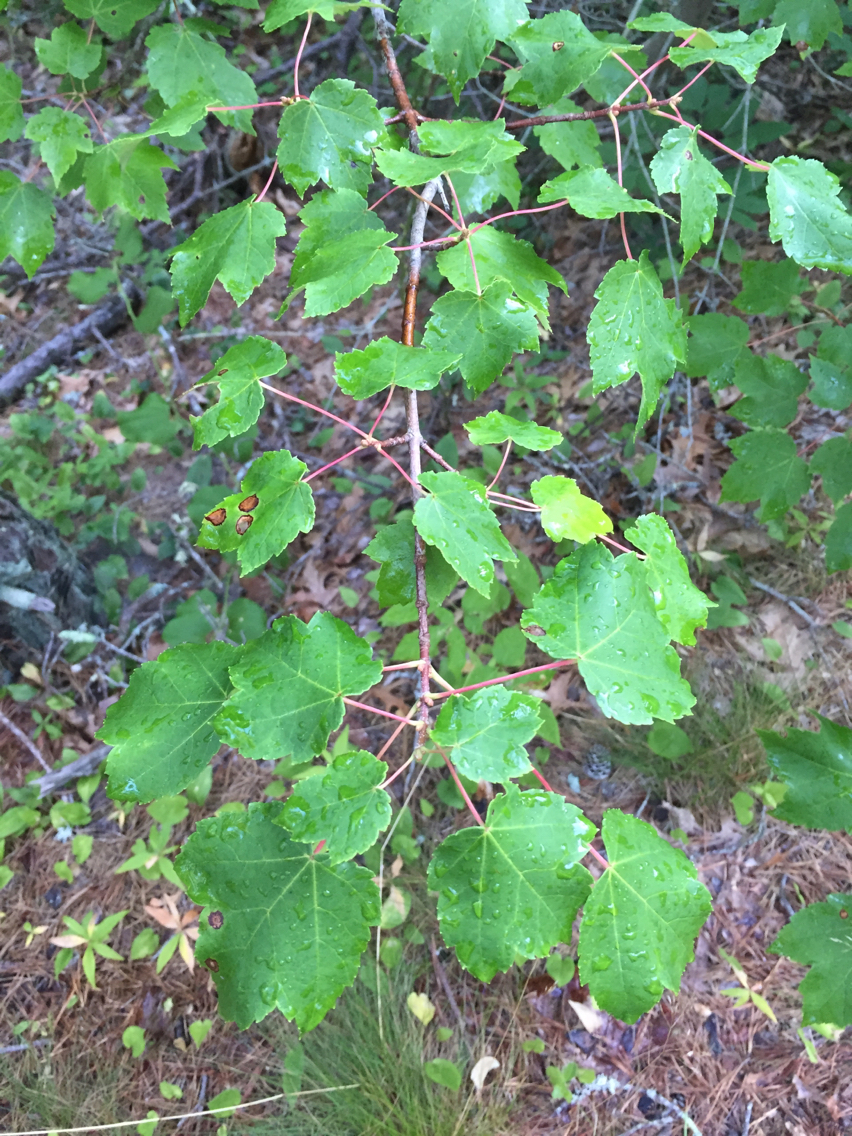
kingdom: Plantae
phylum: Tracheophyta
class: Magnoliopsida
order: Sapindales
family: Sapindaceae
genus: Acer
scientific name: Acer rubrum
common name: Red maple
